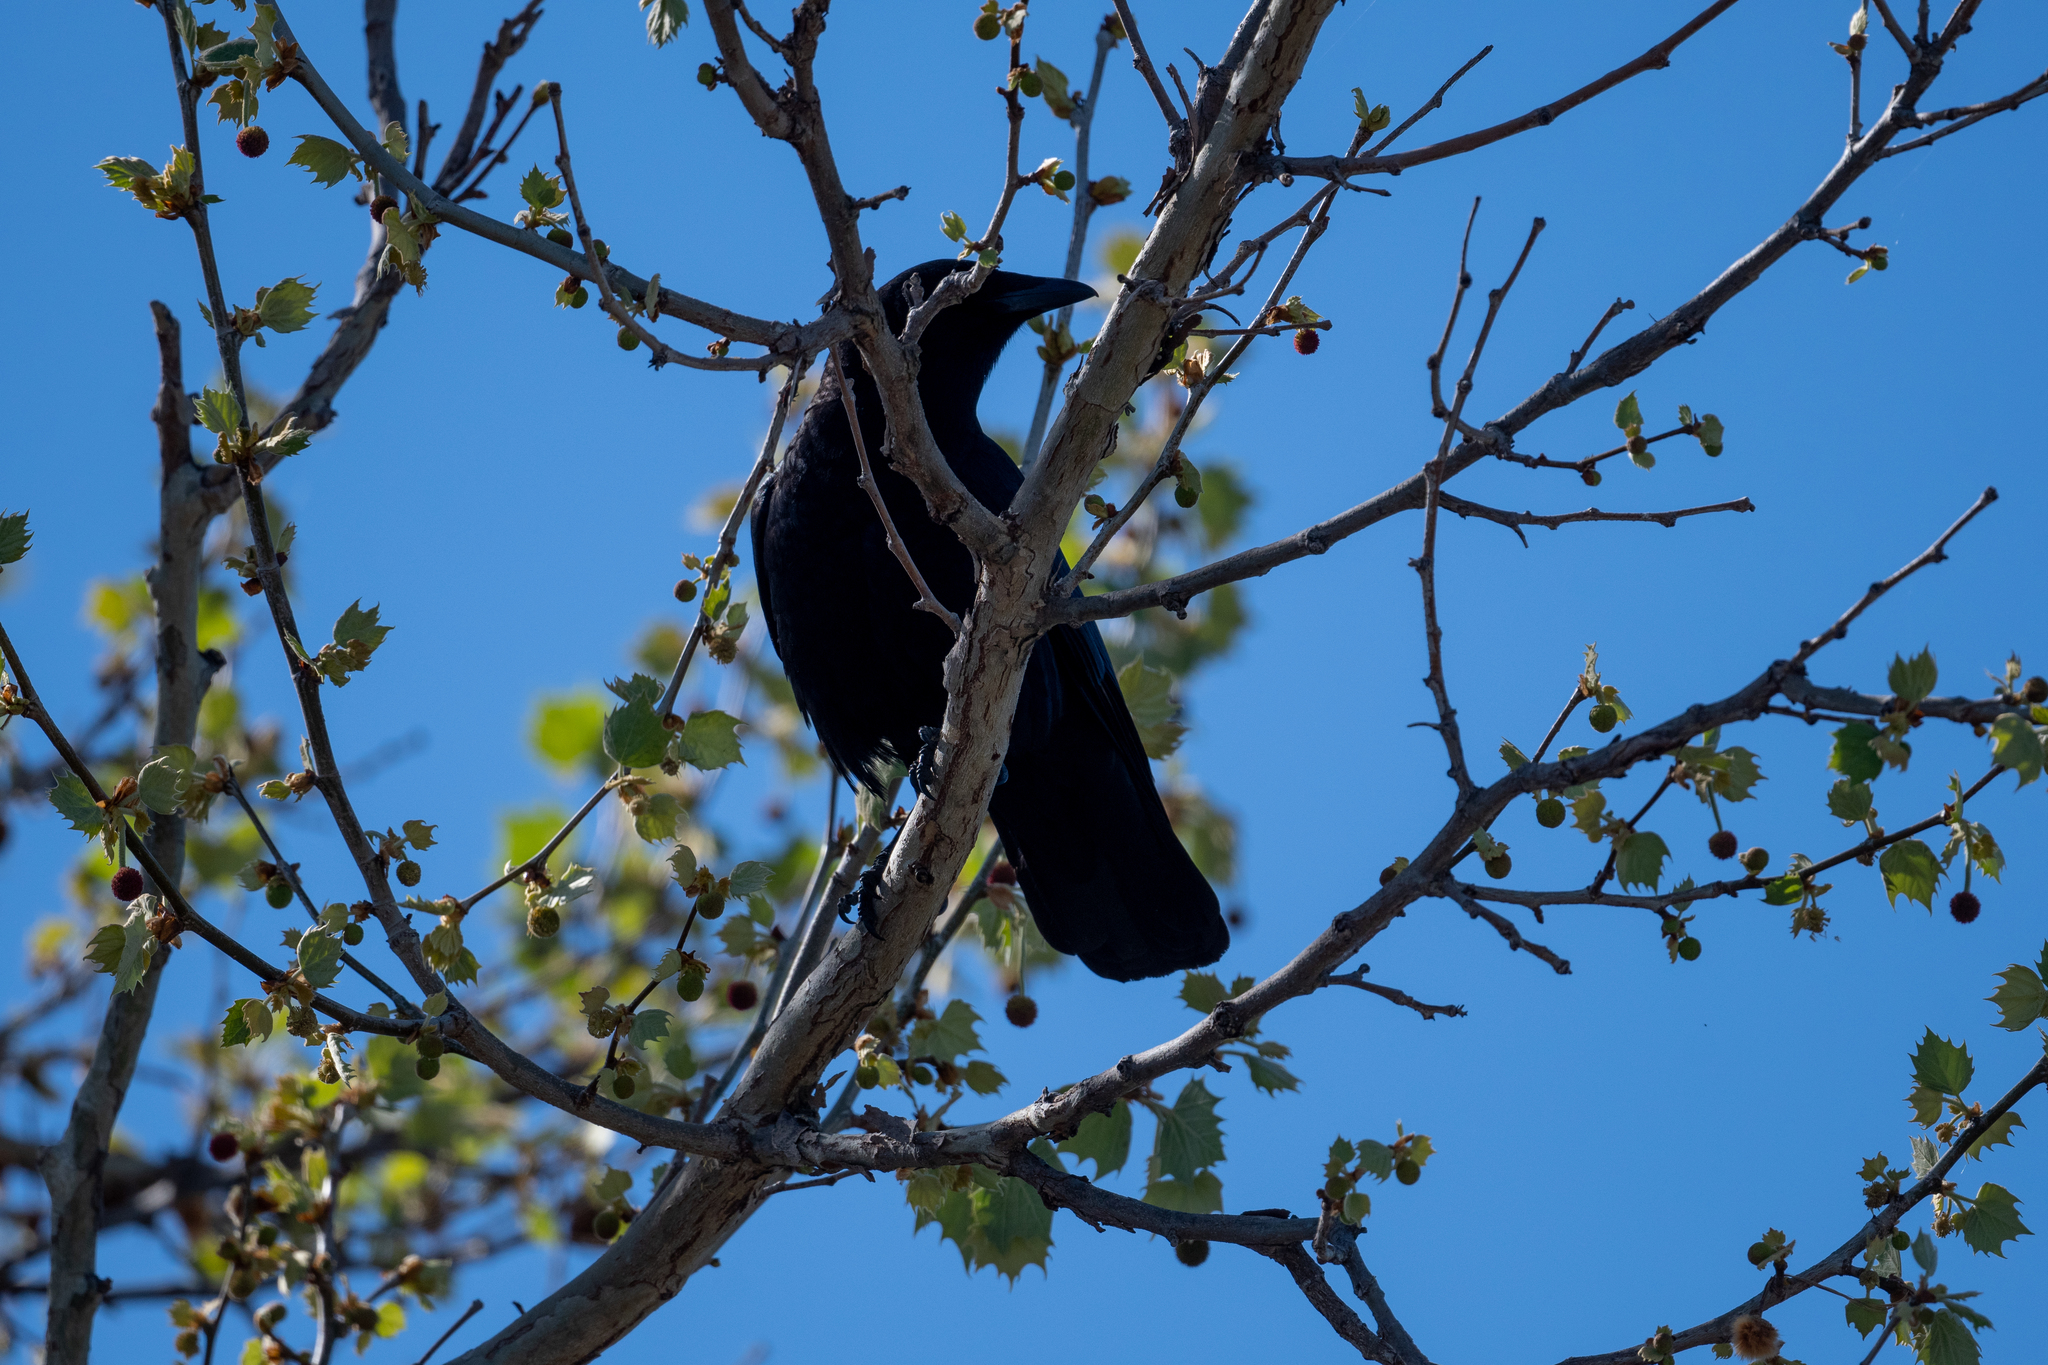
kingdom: Animalia
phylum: Chordata
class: Aves
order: Passeriformes
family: Corvidae
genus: Corvus
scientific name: Corvus brachyrhynchos
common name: American crow
